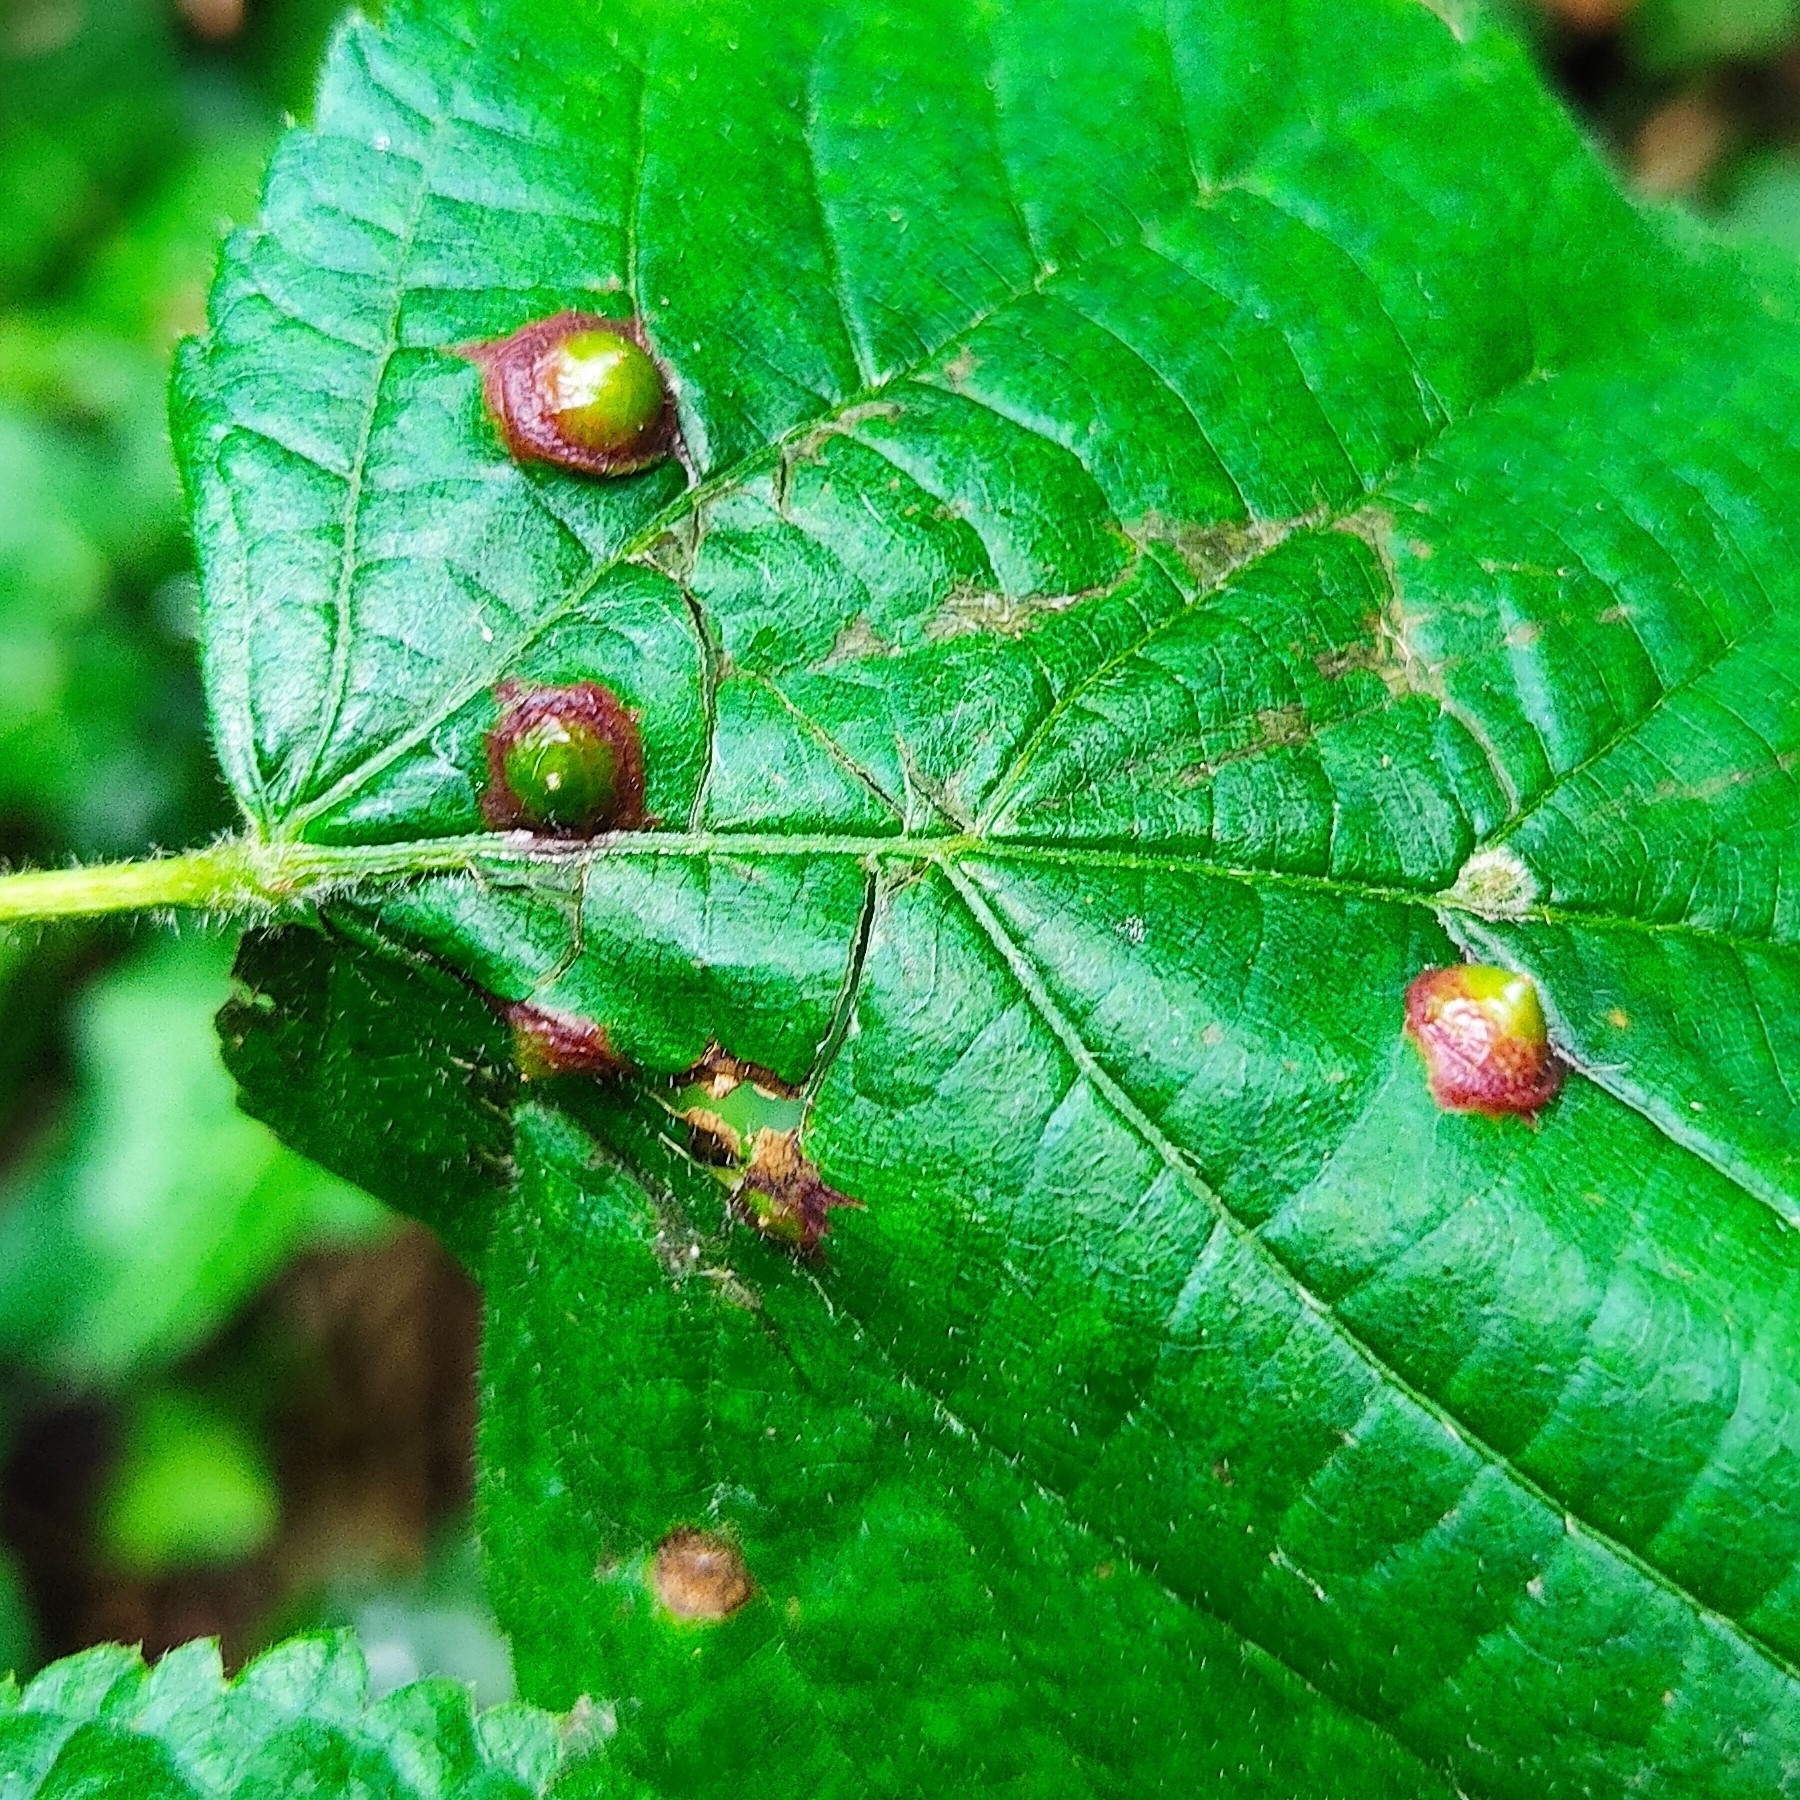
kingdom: Animalia
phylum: Arthropoda
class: Insecta
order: Diptera
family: Cecidomyiidae
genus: Didymomyia
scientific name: Didymomyia tiliacea
